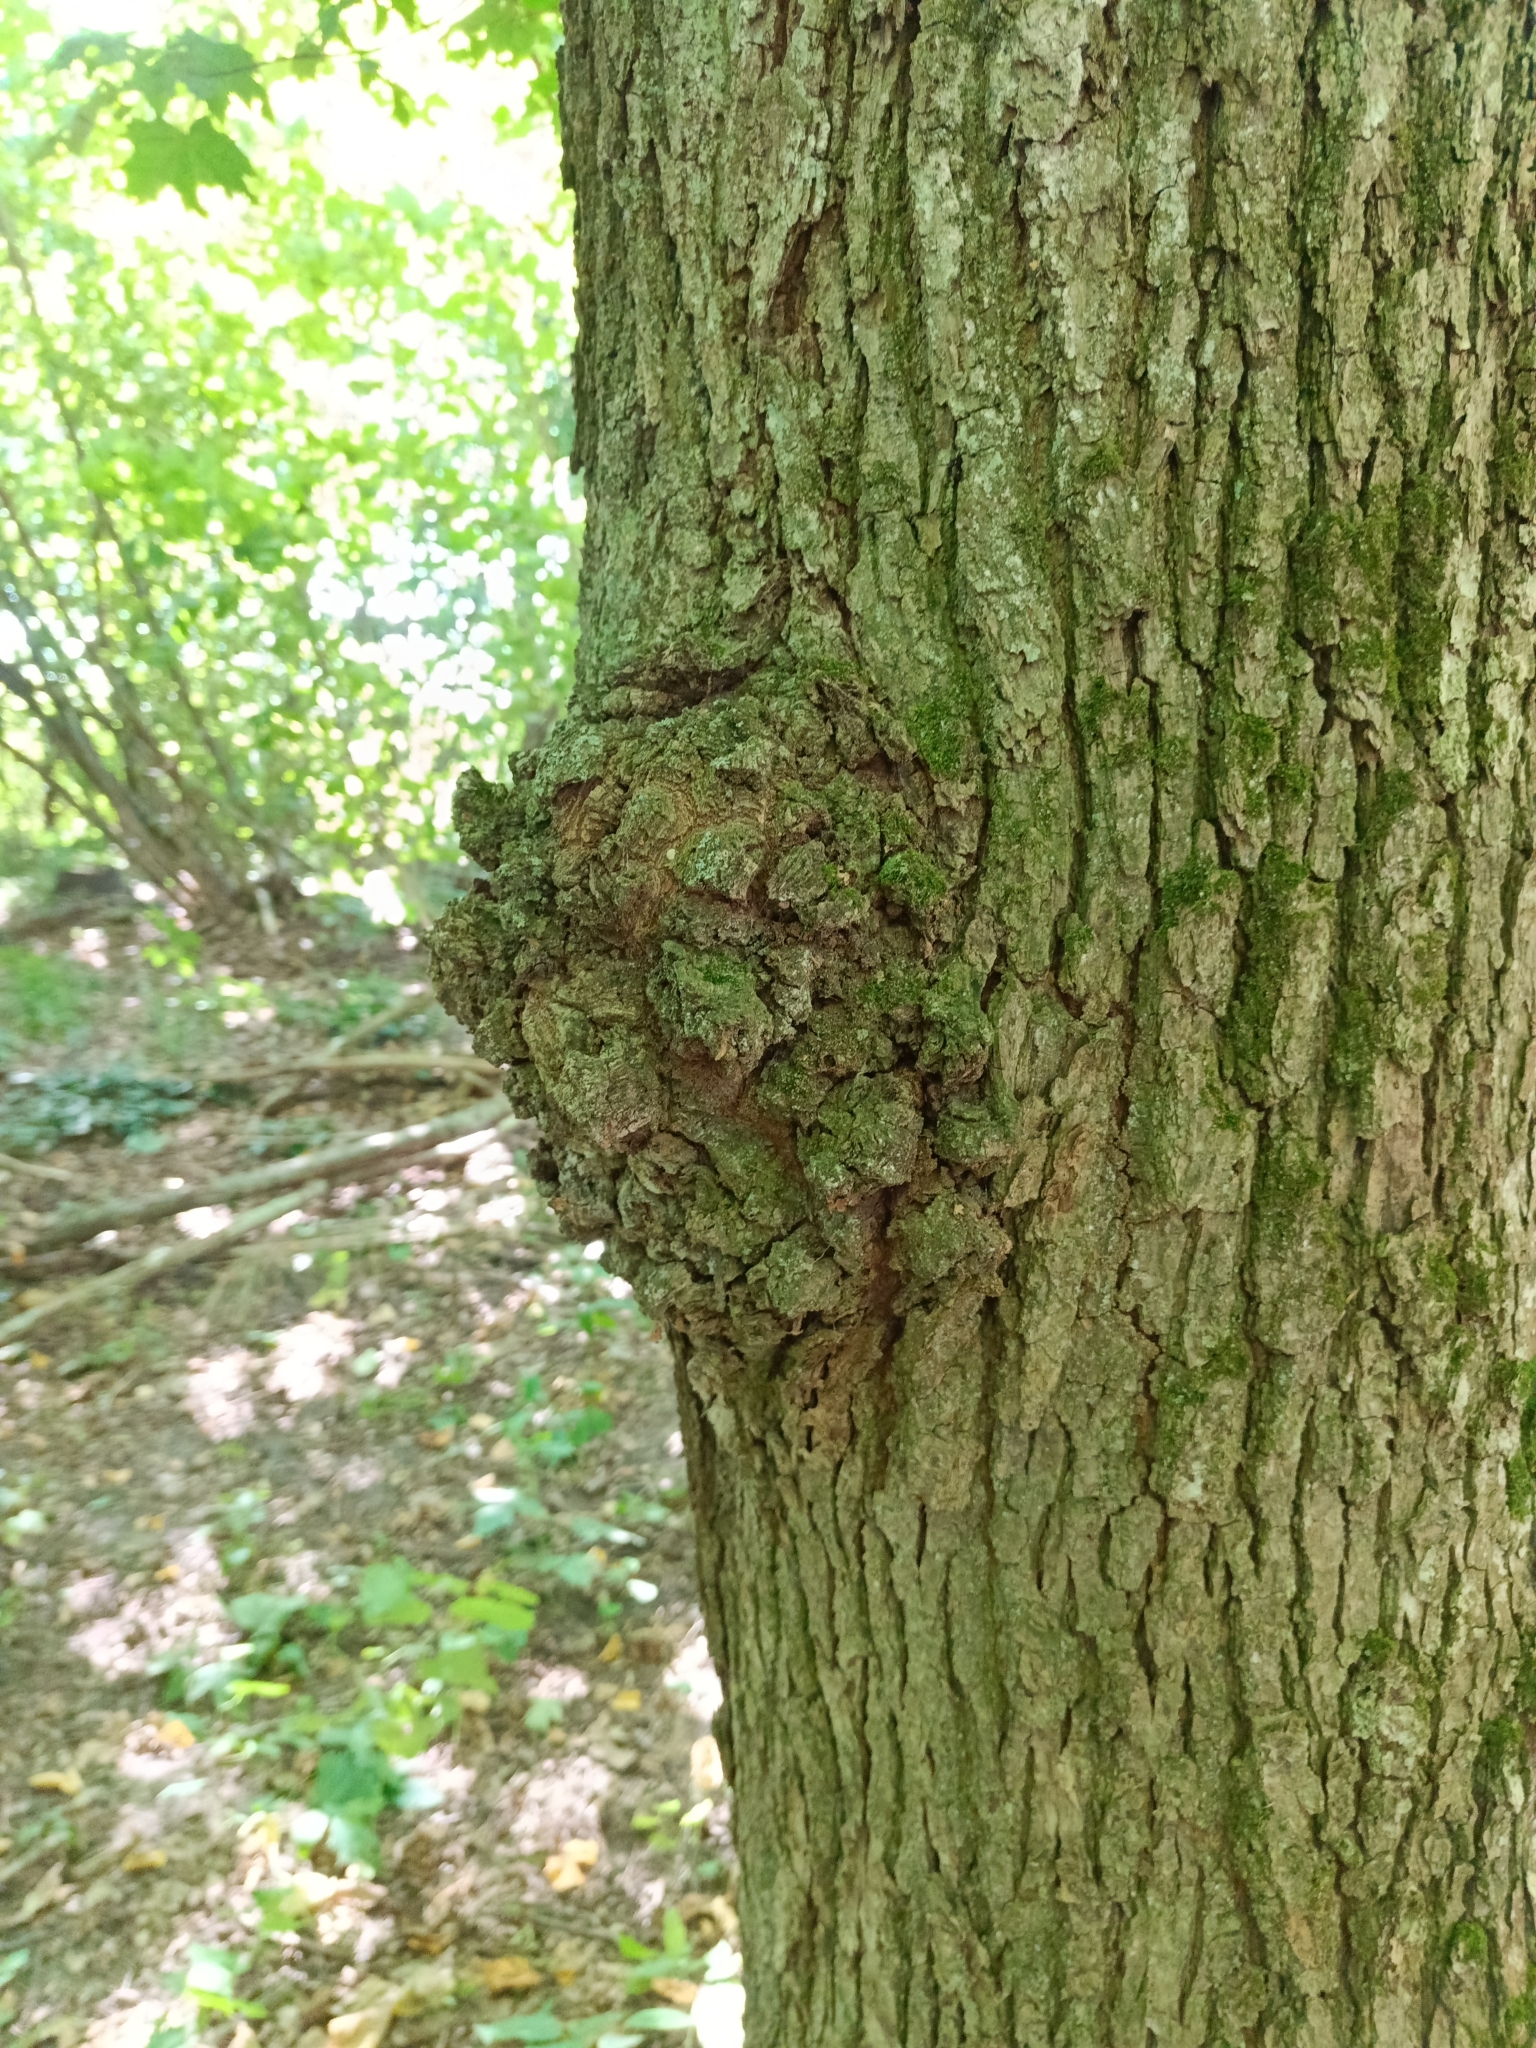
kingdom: Bacteria
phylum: Proteobacteria
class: Alphaproteobacteria
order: Rhizobiales
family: Rhizobiaceae
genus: Rhizobium
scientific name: Rhizobium Agrobacterium radiobacter
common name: Bacterial crown gall
